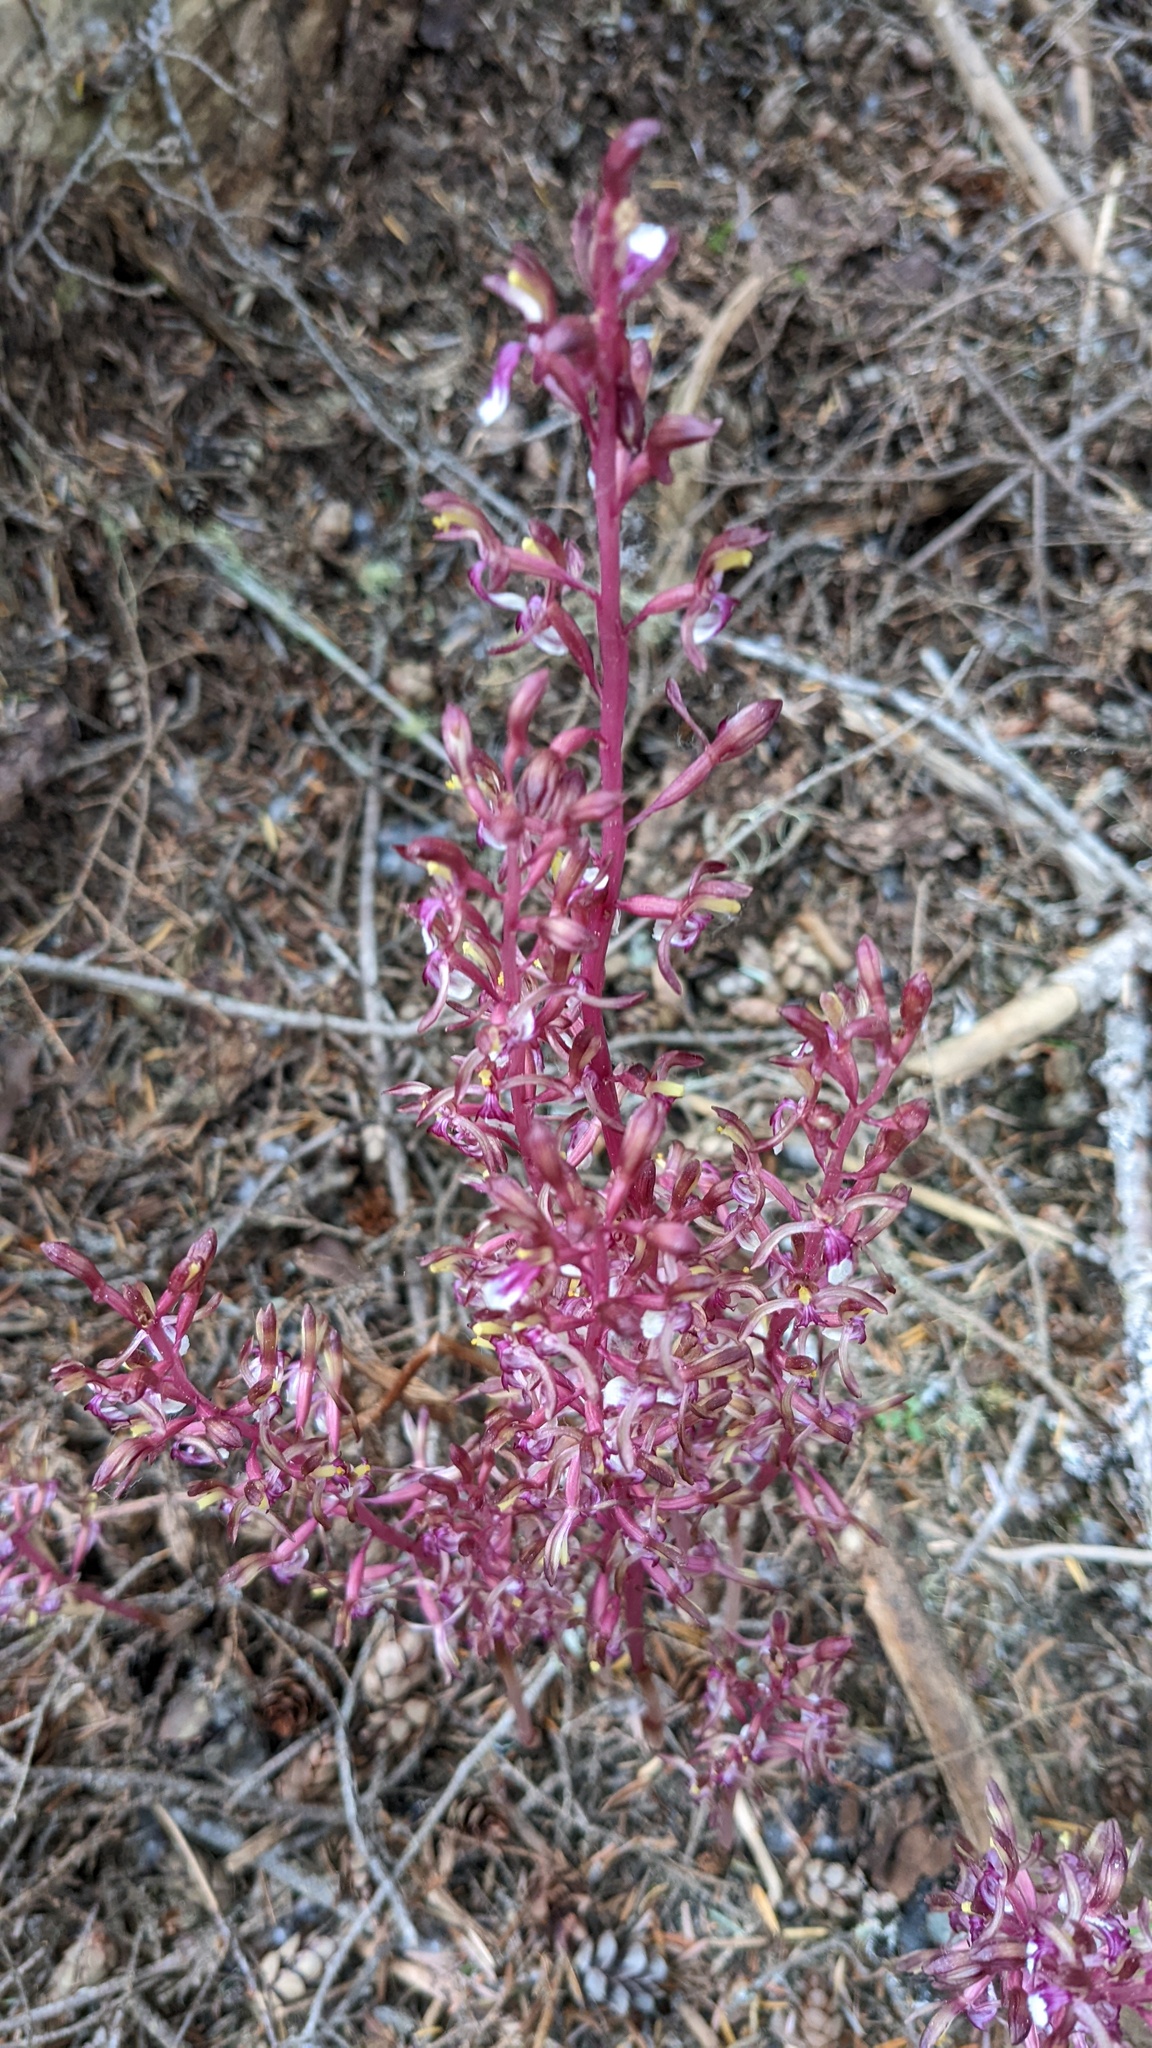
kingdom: Plantae
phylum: Tracheophyta
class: Liliopsida
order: Asparagales
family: Orchidaceae
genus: Corallorhiza
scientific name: Corallorhiza mertensiana
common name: Pacific coralroot
